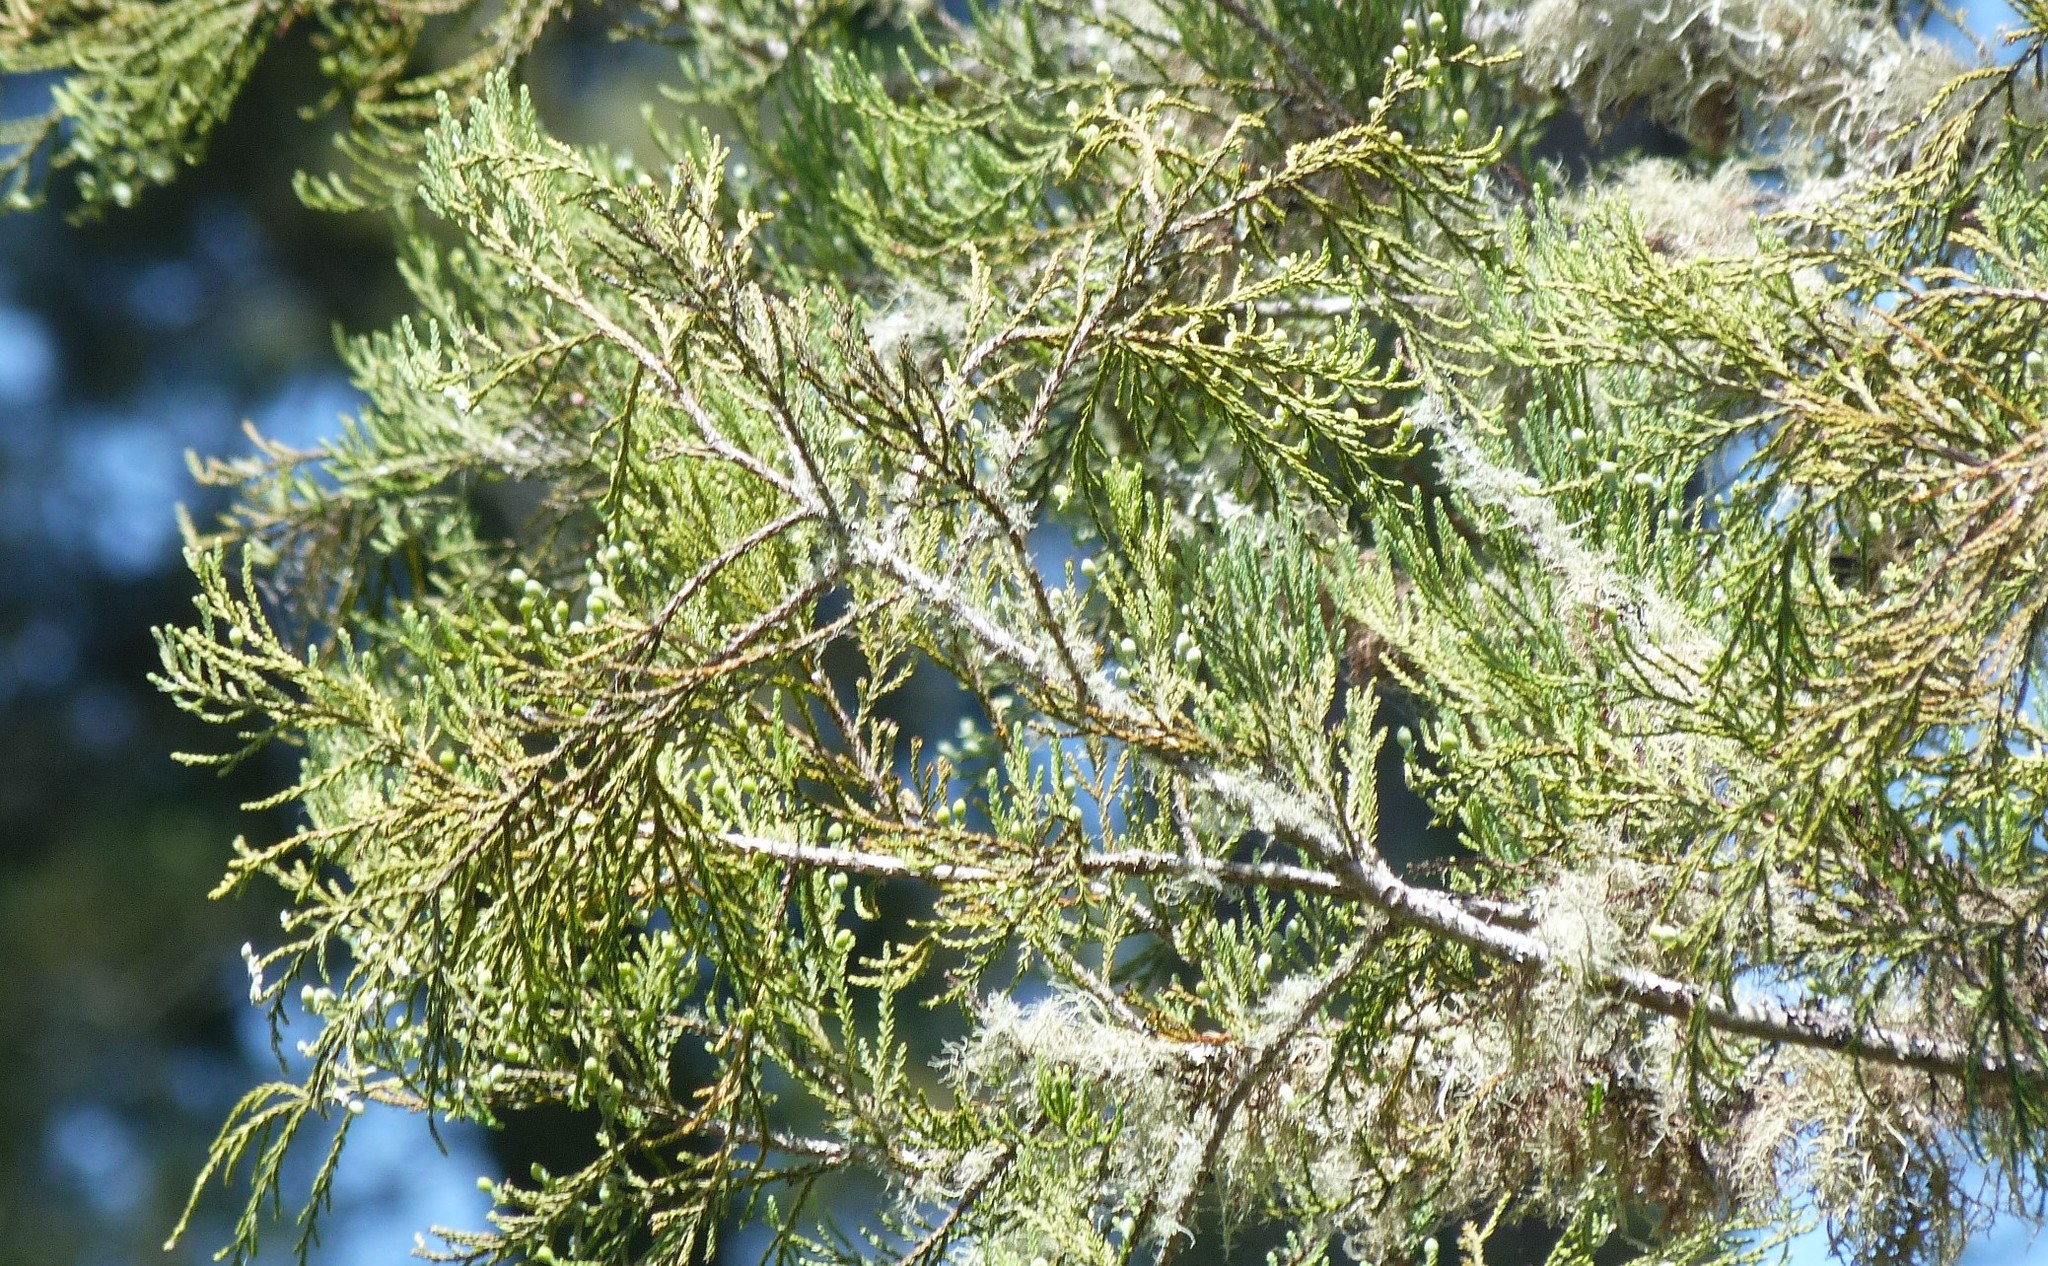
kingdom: Plantae
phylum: Tracheophyta
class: Pinopsida
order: Pinales
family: Podocarpaceae
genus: Dacrycarpus
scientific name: Dacrycarpus dacrydioides
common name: White pine
